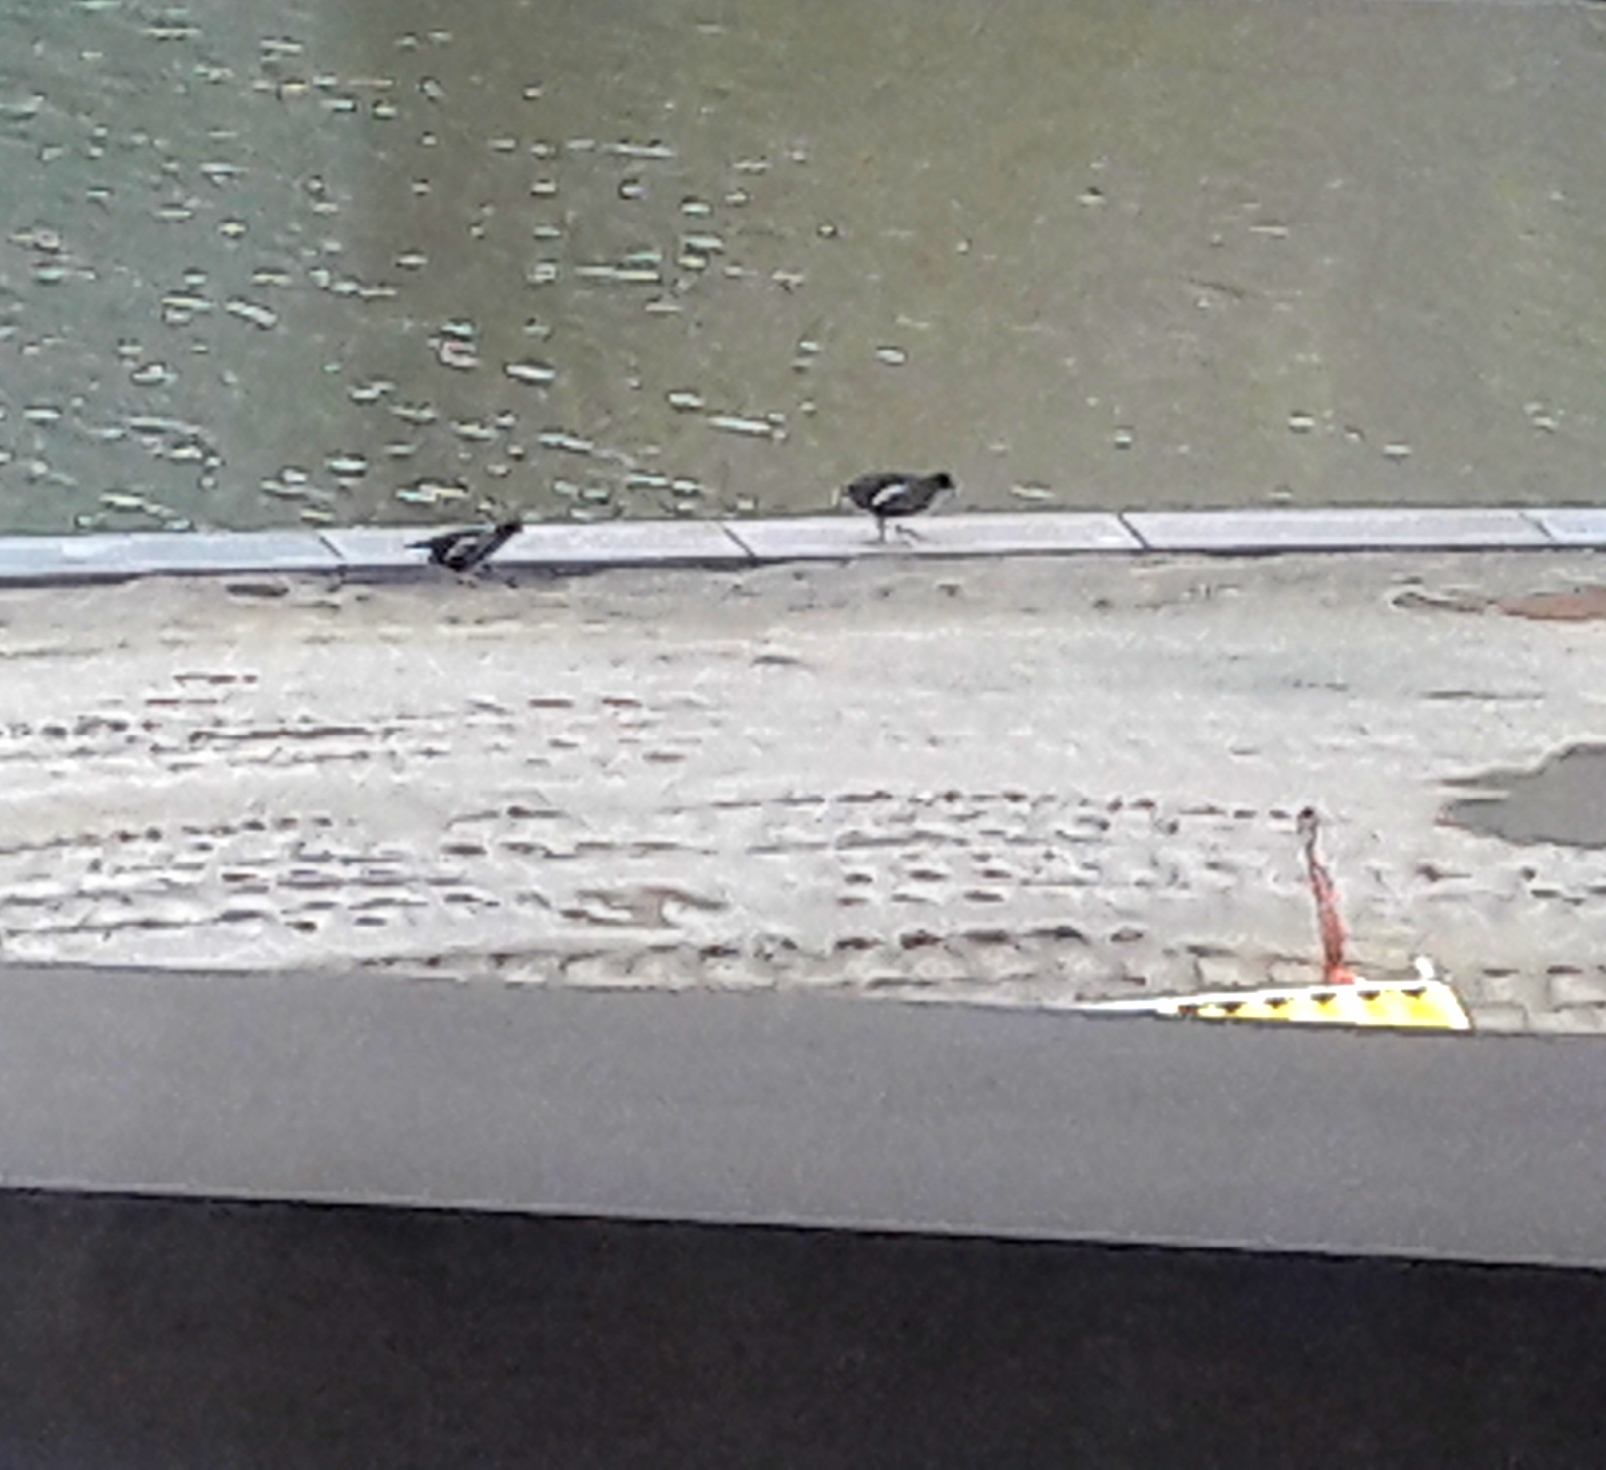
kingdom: Animalia
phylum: Chordata
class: Aves
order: Gruiformes
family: Rallidae
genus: Gallinula
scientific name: Gallinula chloropus
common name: Common moorhen
